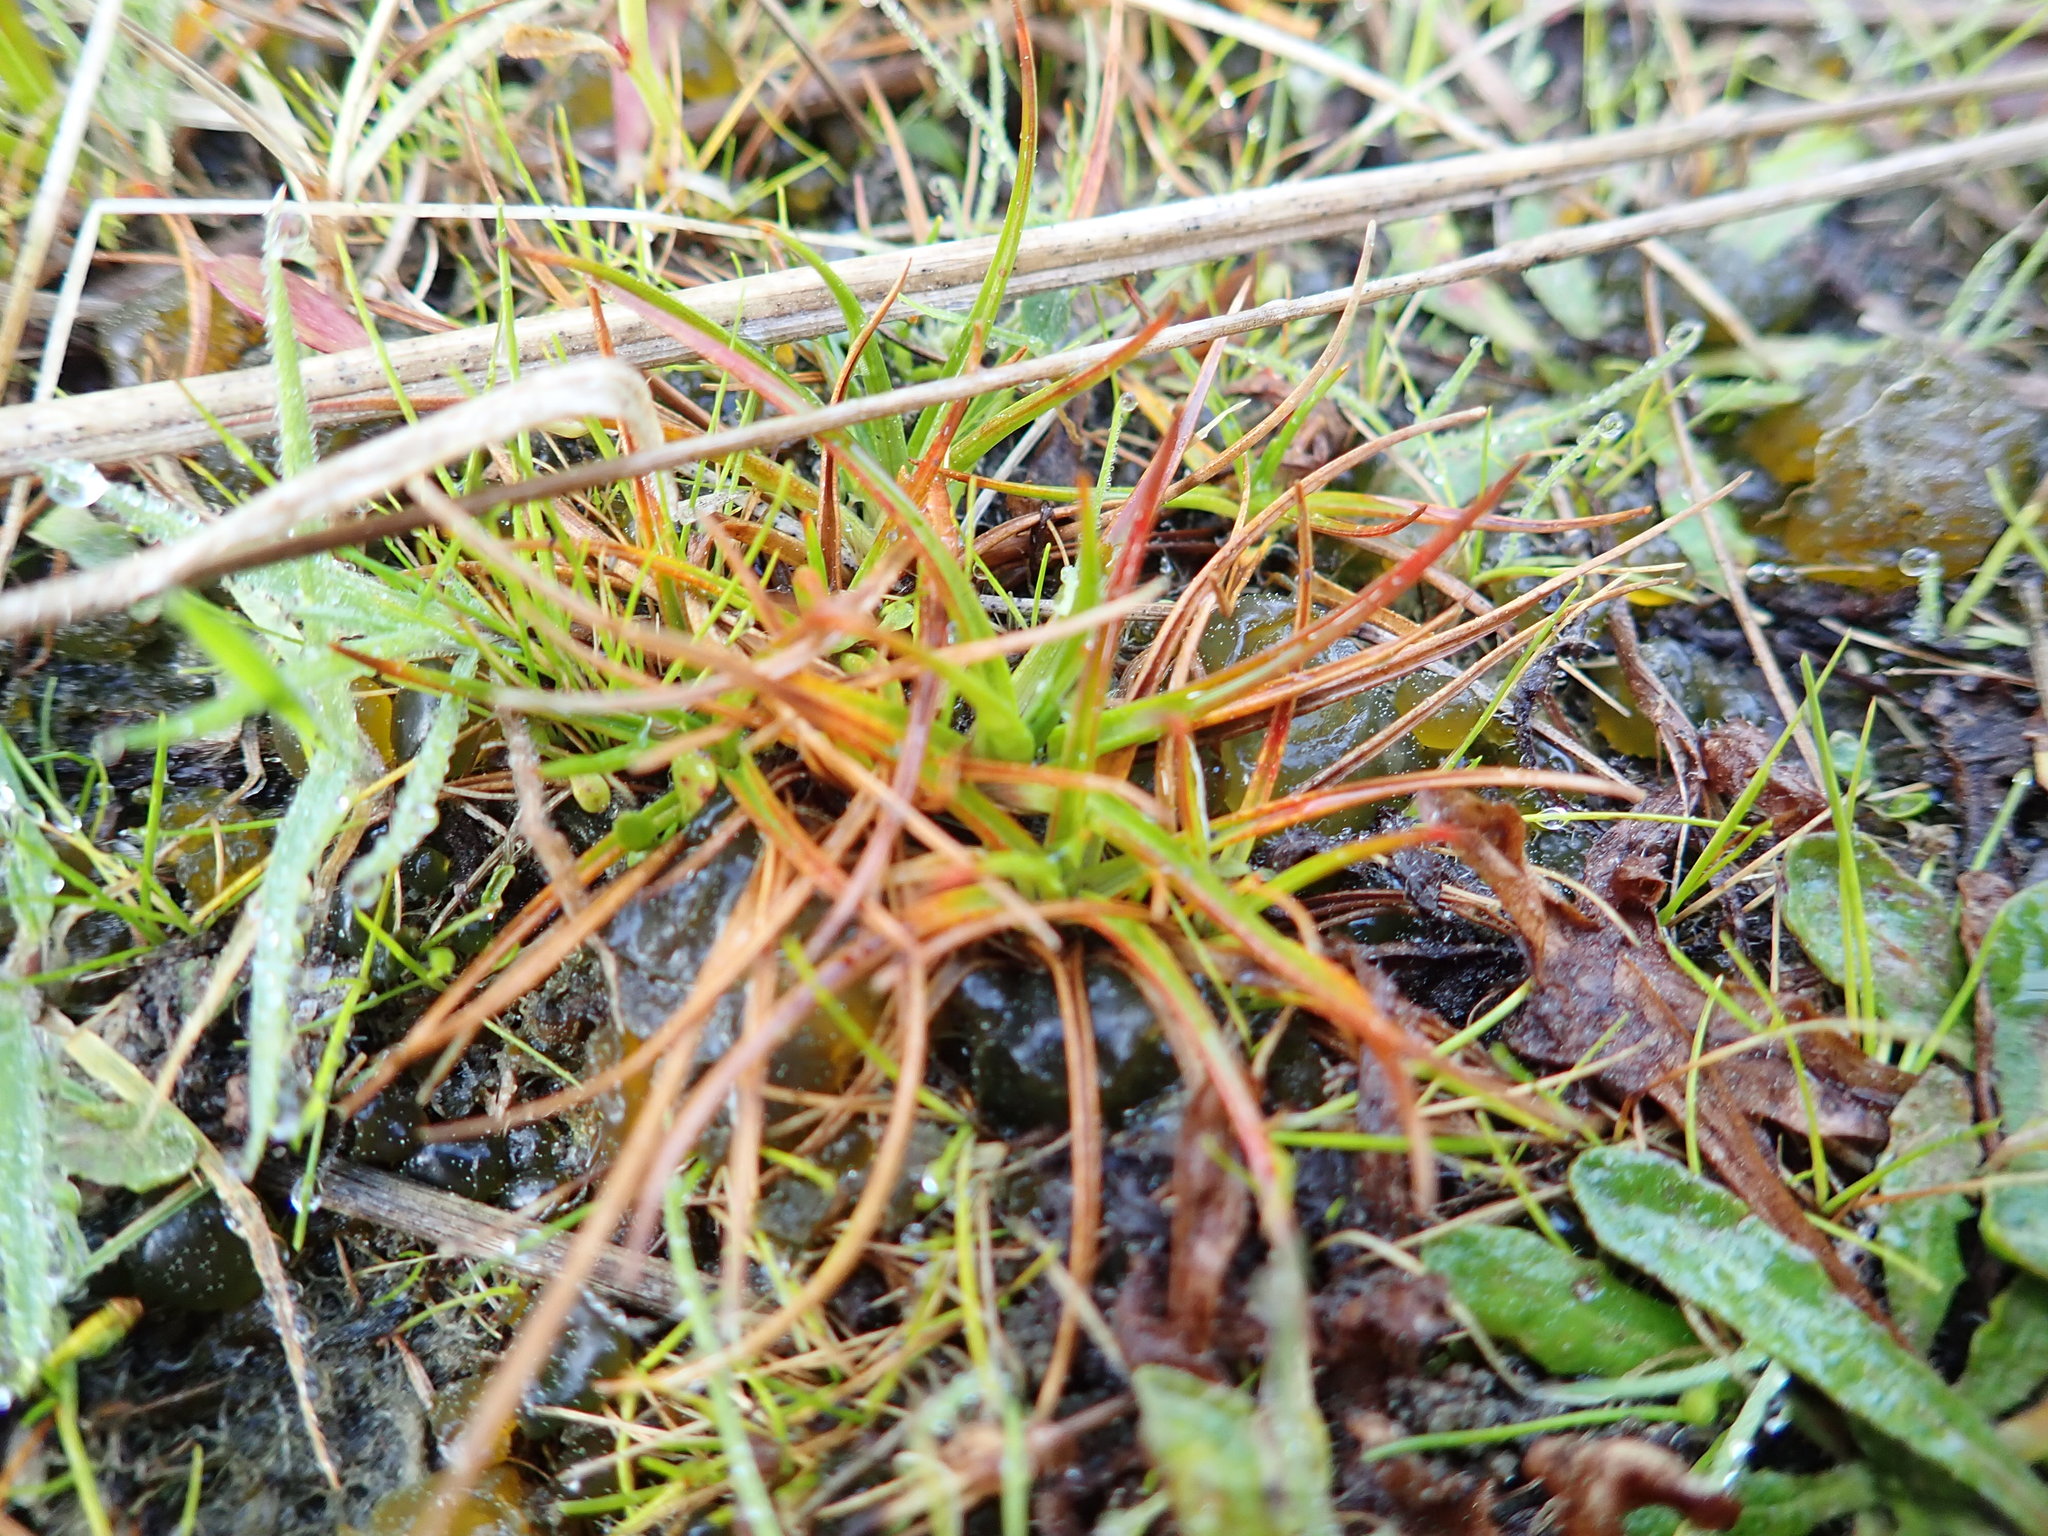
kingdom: Plantae
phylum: Tracheophyta
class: Liliopsida
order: Poales
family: Juncaceae
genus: Juncus
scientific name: Juncus caespiticius
